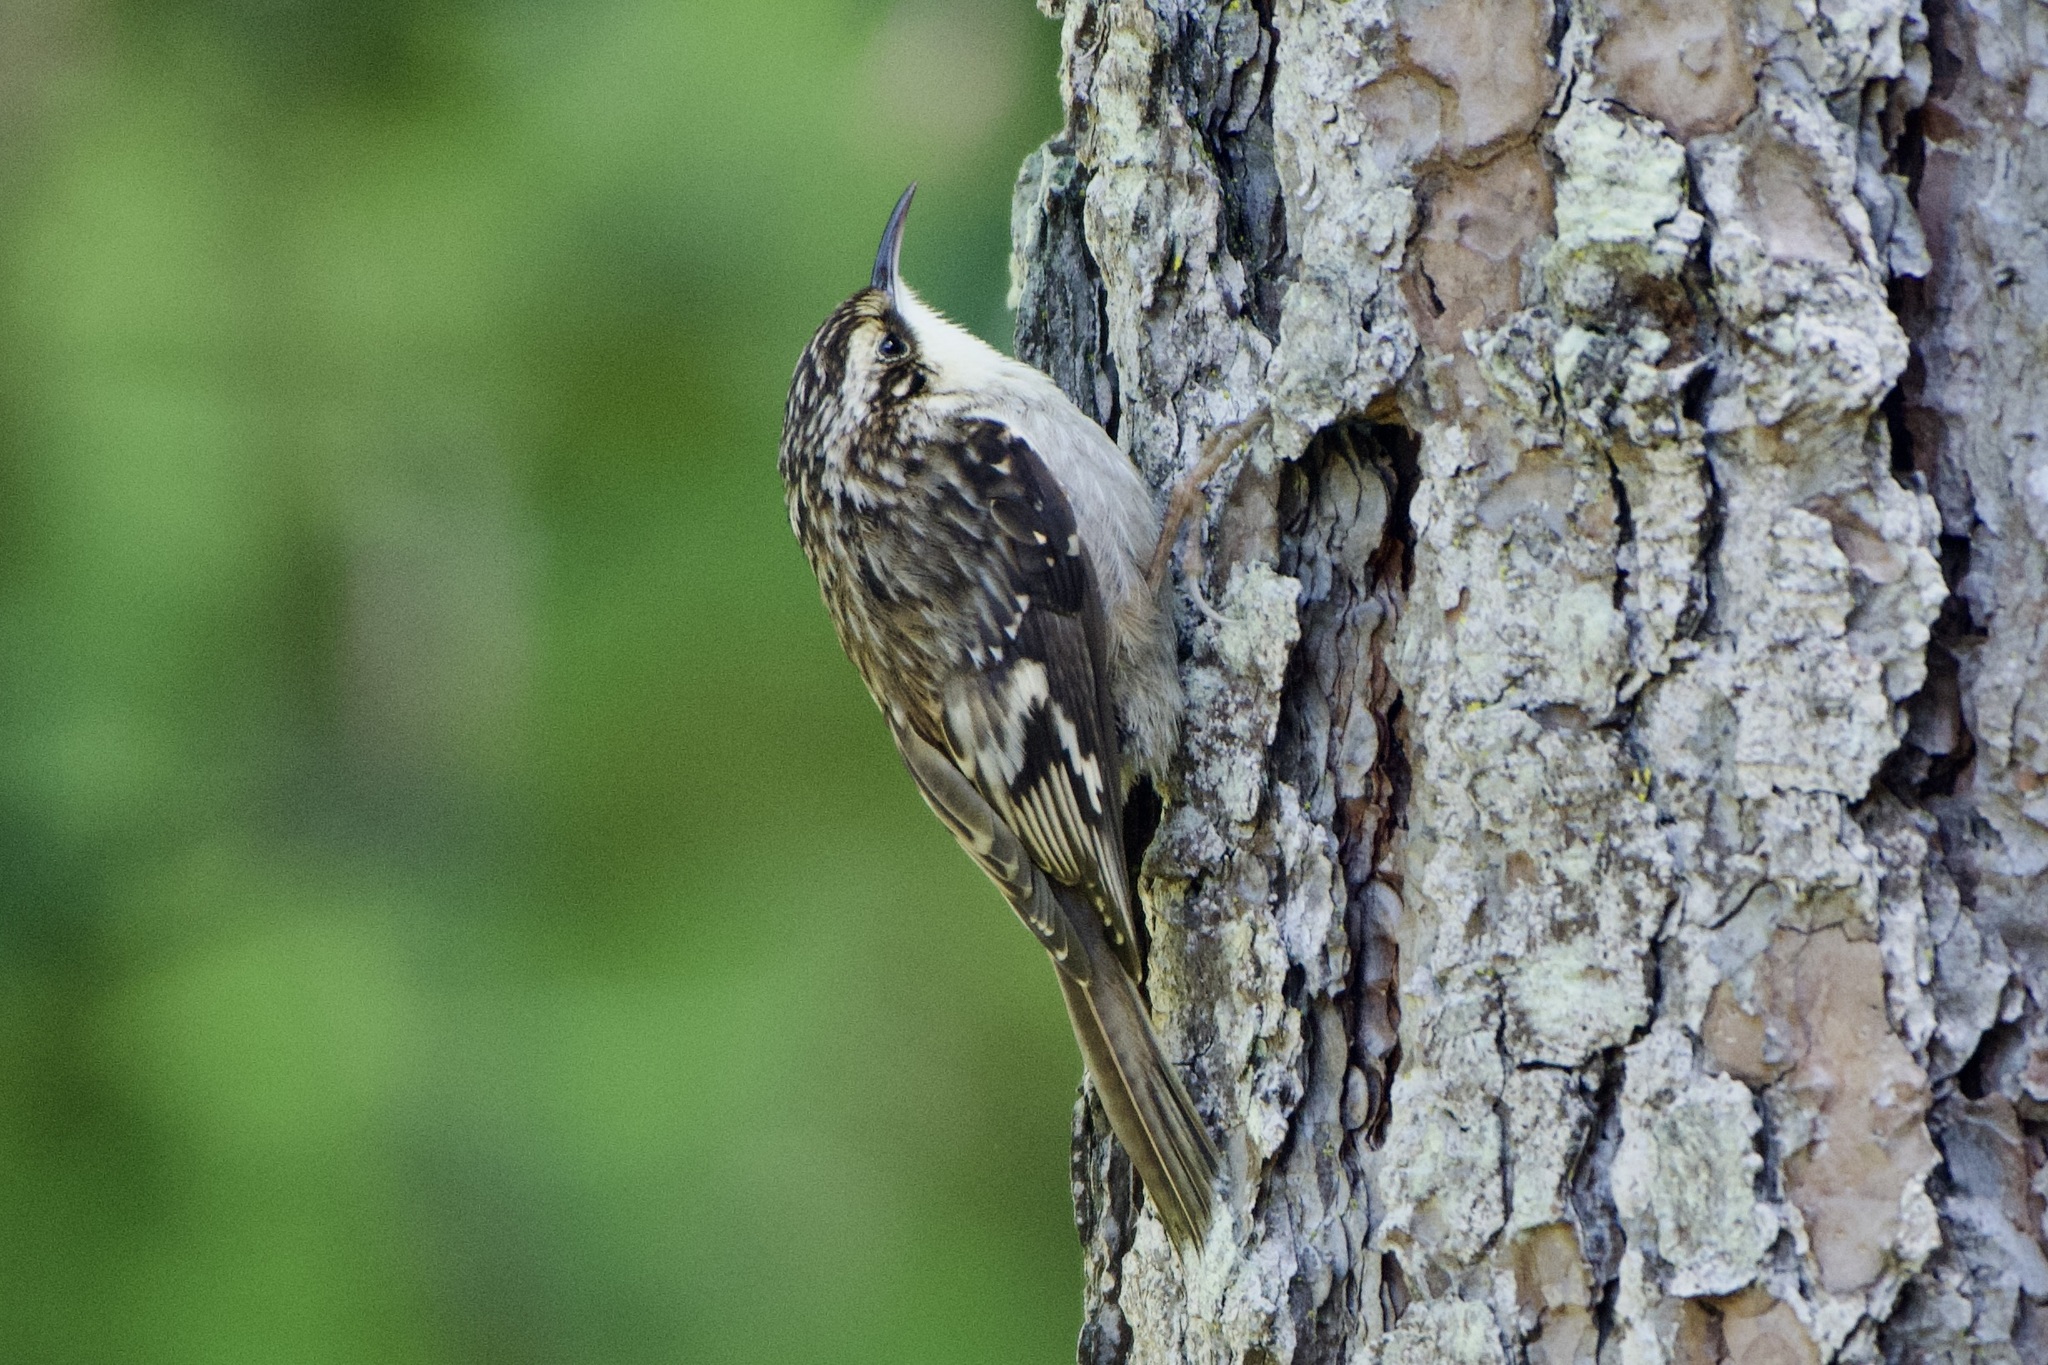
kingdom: Animalia
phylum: Chordata
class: Aves
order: Passeriformes
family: Certhiidae
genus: Certhia
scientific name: Certhia americana
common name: Brown creeper
